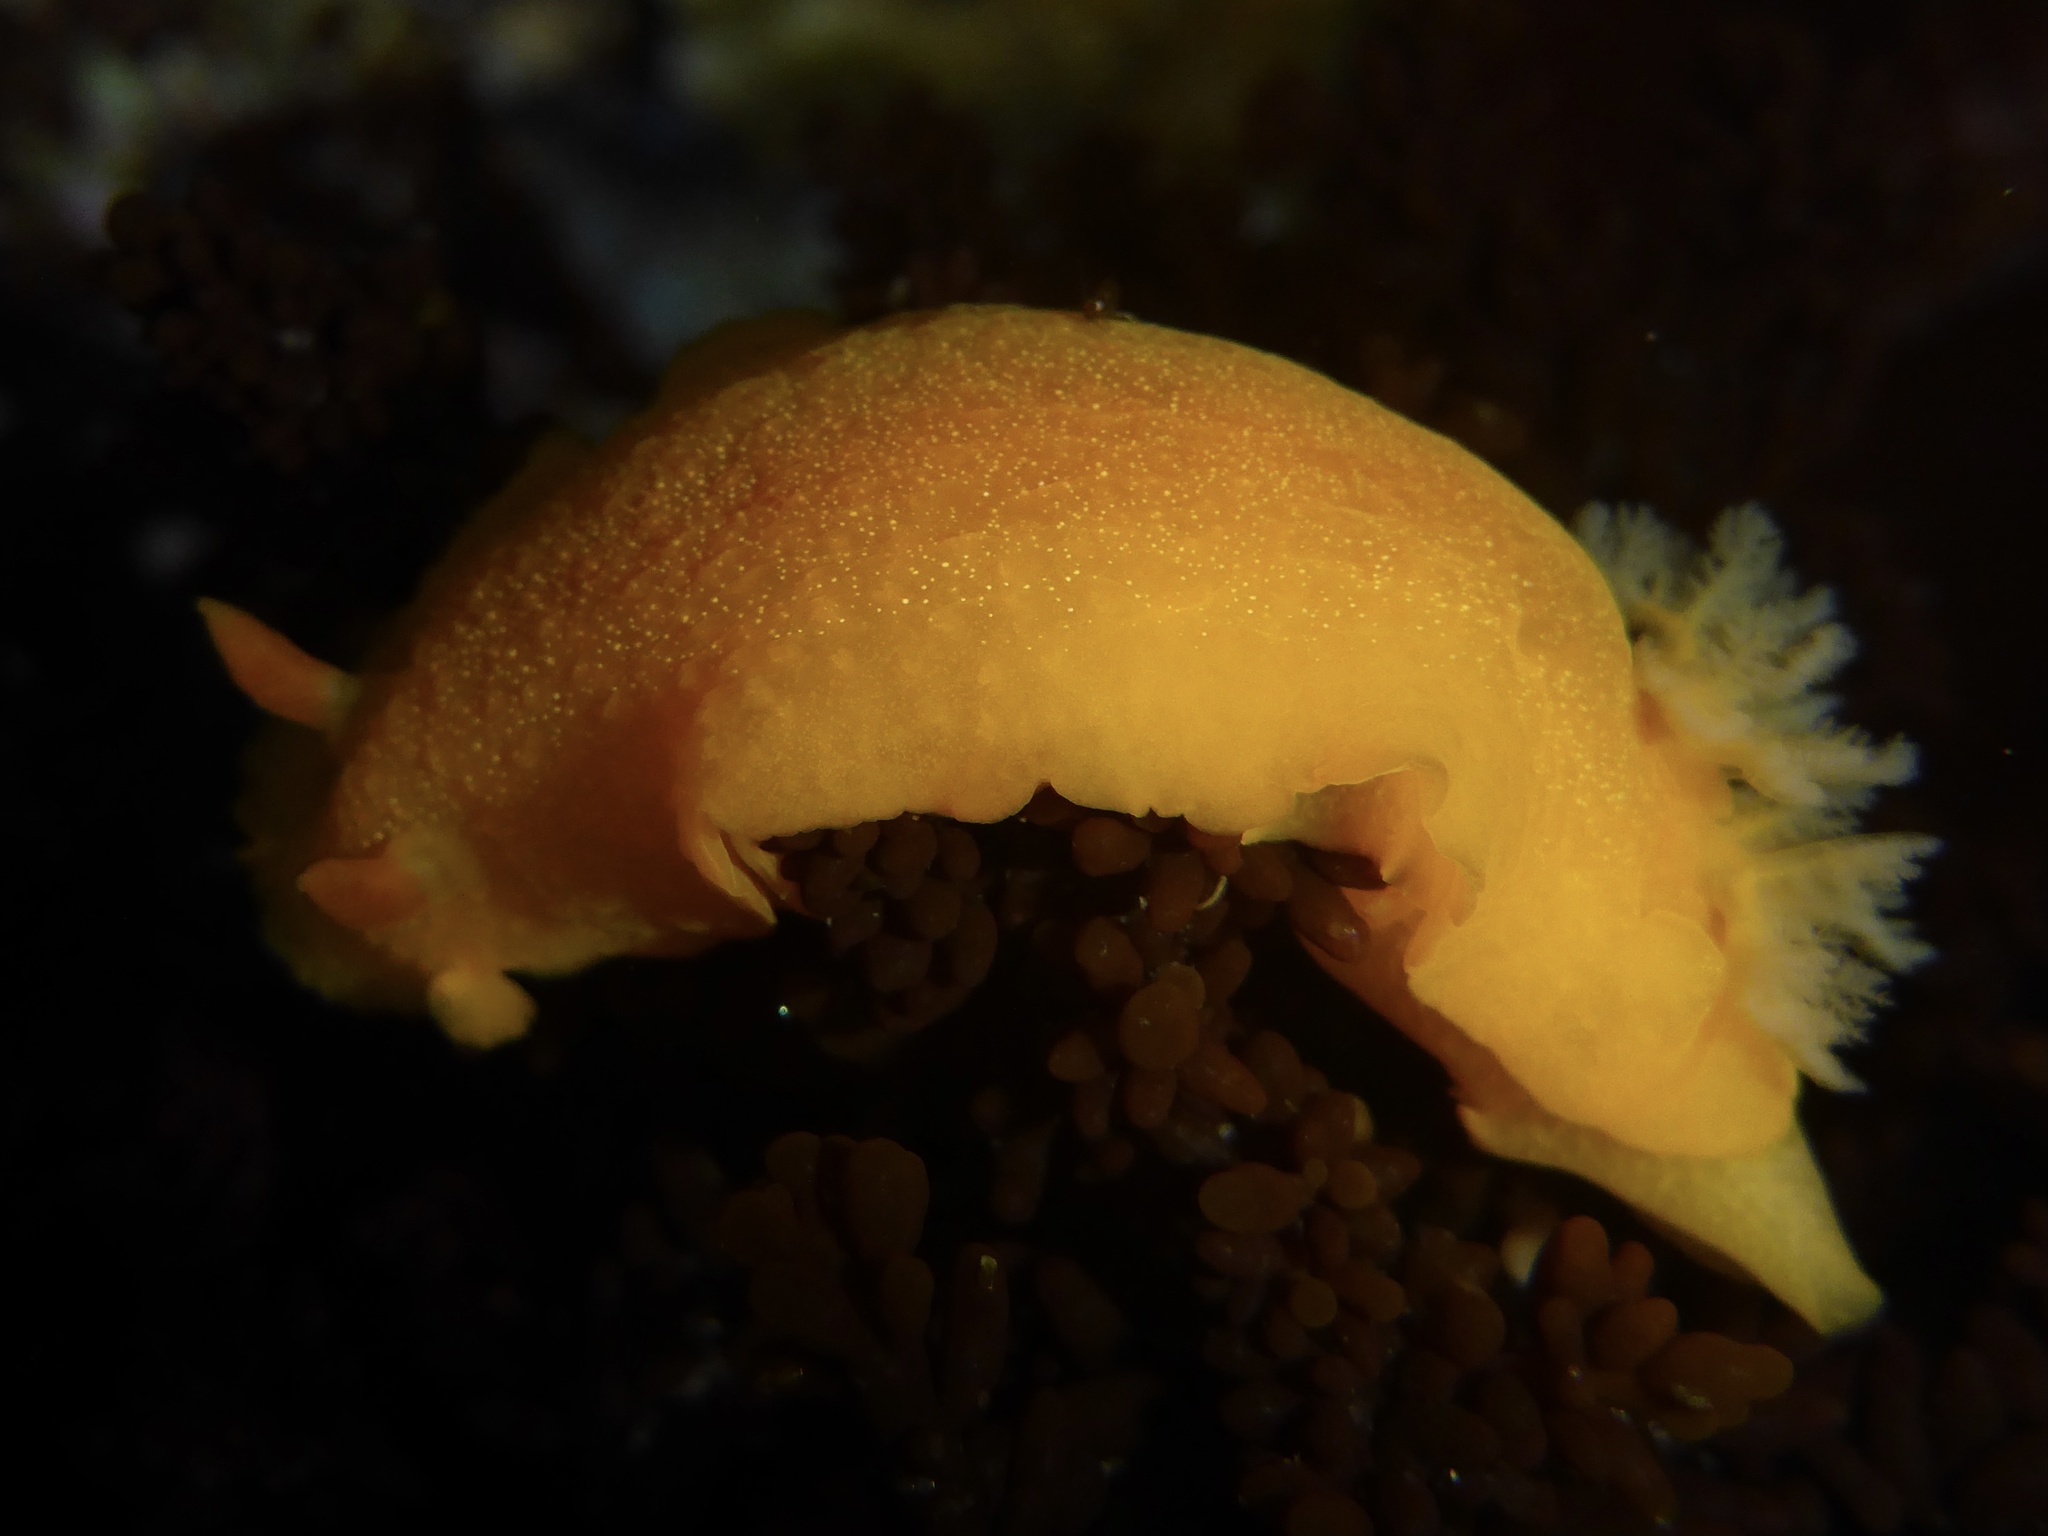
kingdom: Animalia
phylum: Mollusca
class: Gastropoda
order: Nudibranchia
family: Dendrodorididae
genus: Doriopsilla
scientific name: Doriopsilla albopunctata
